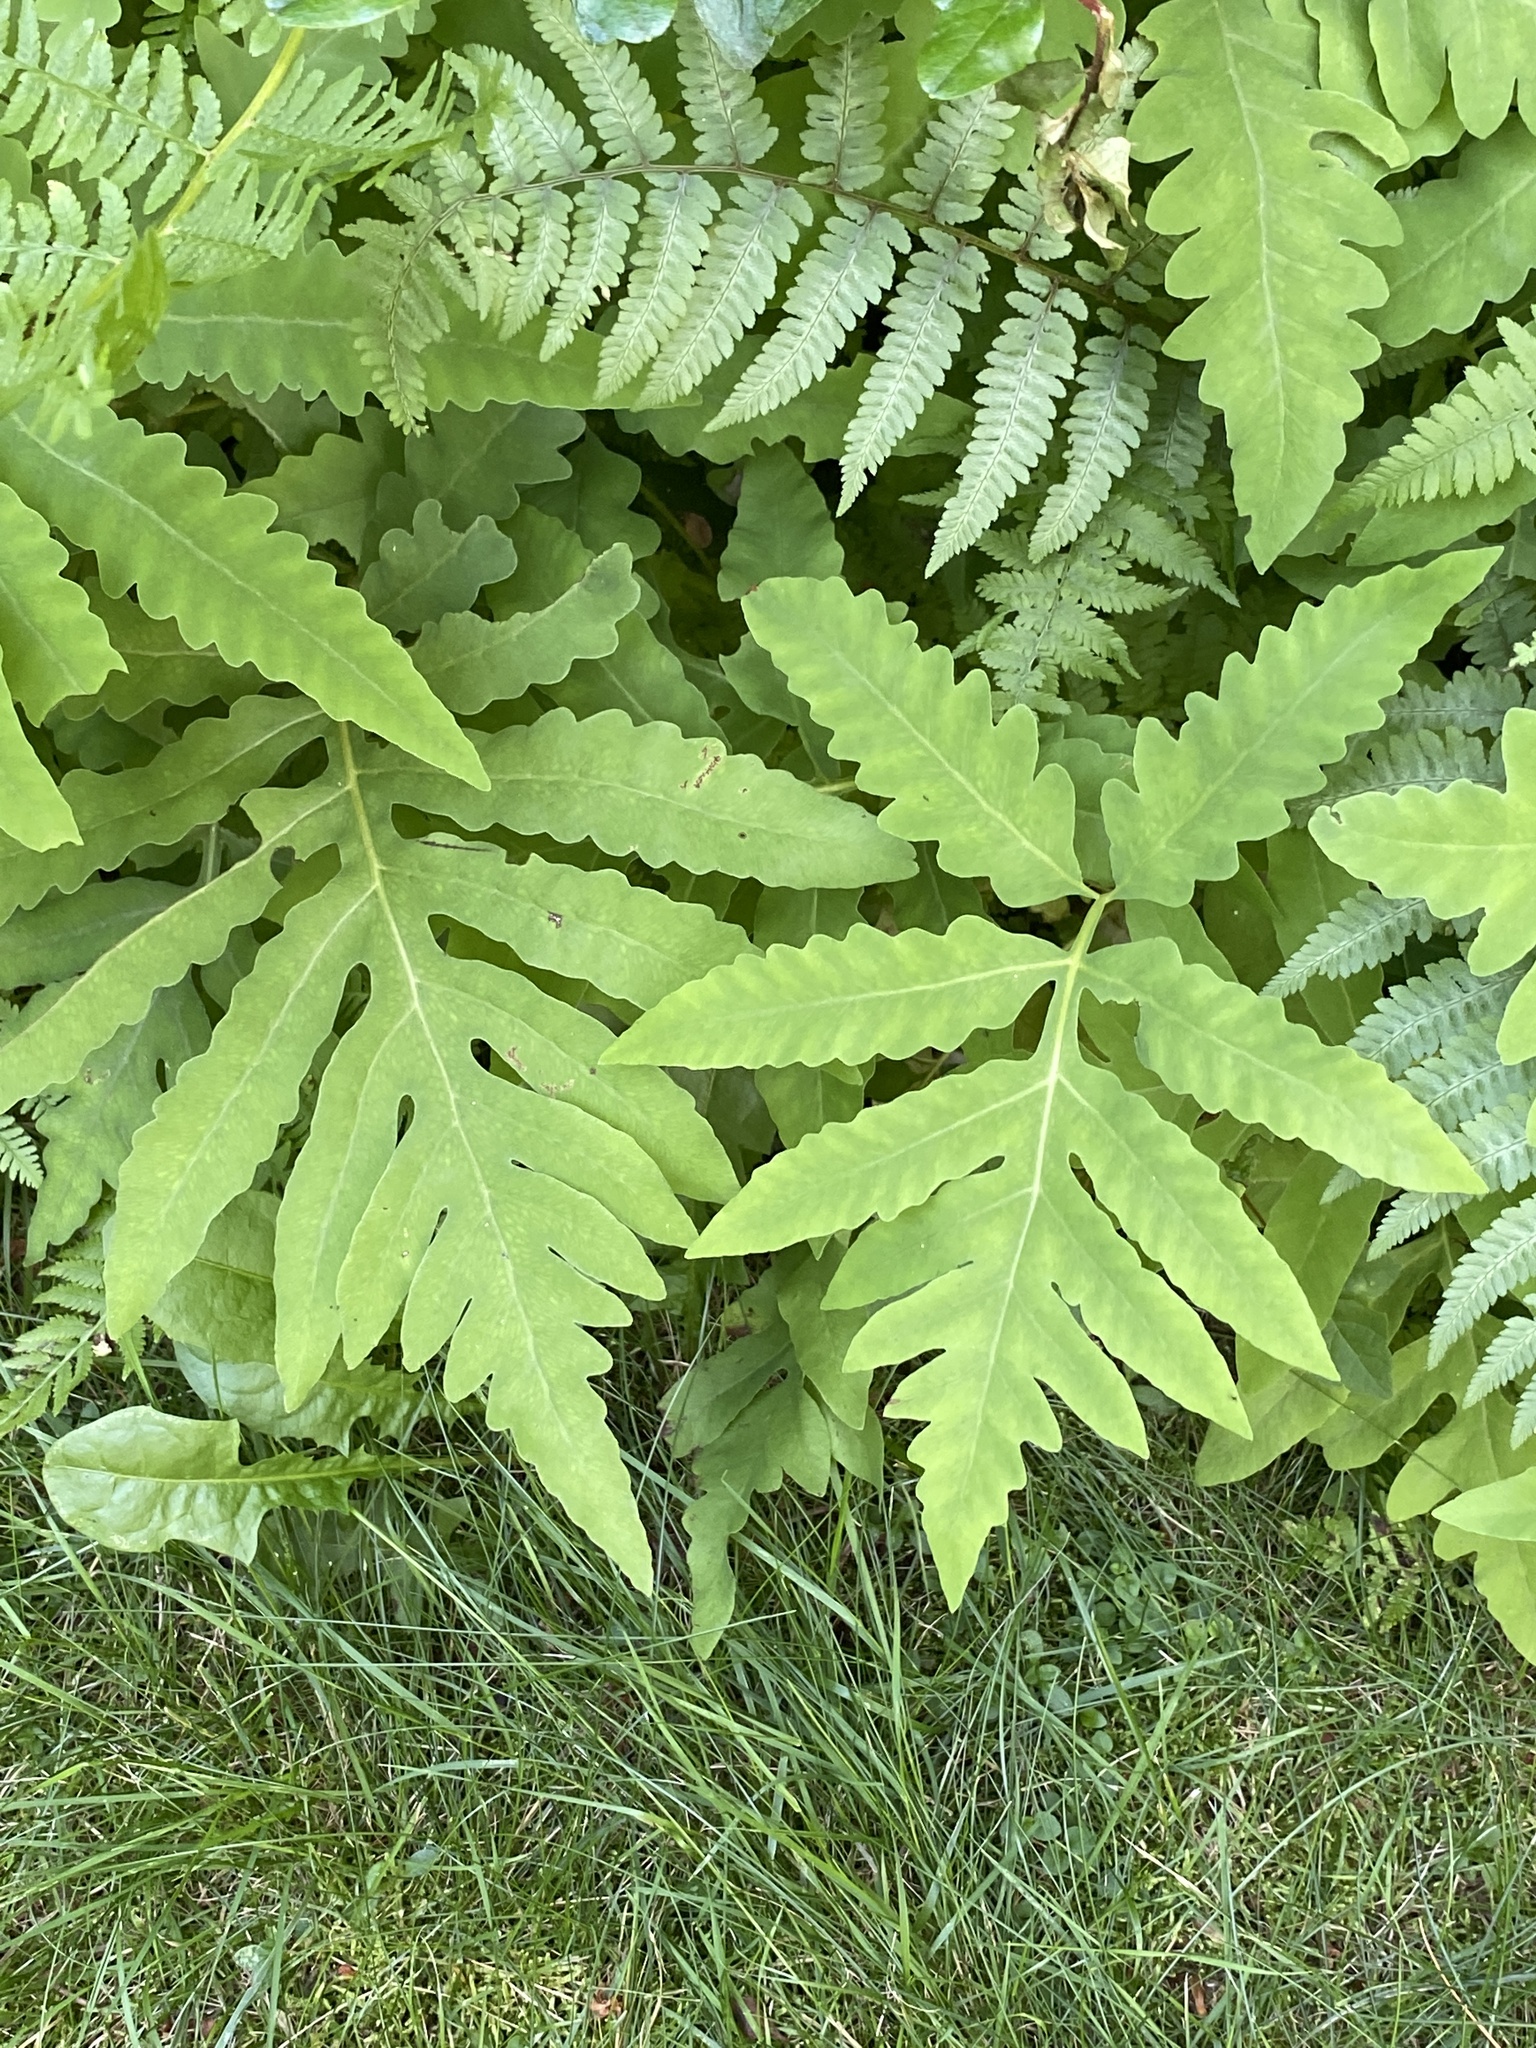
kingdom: Plantae
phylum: Tracheophyta
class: Polypodiopsida
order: Polypodiales
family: Onocleaceae
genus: Onoclea
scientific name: Onoclea sensibilis
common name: Sensitive fern
